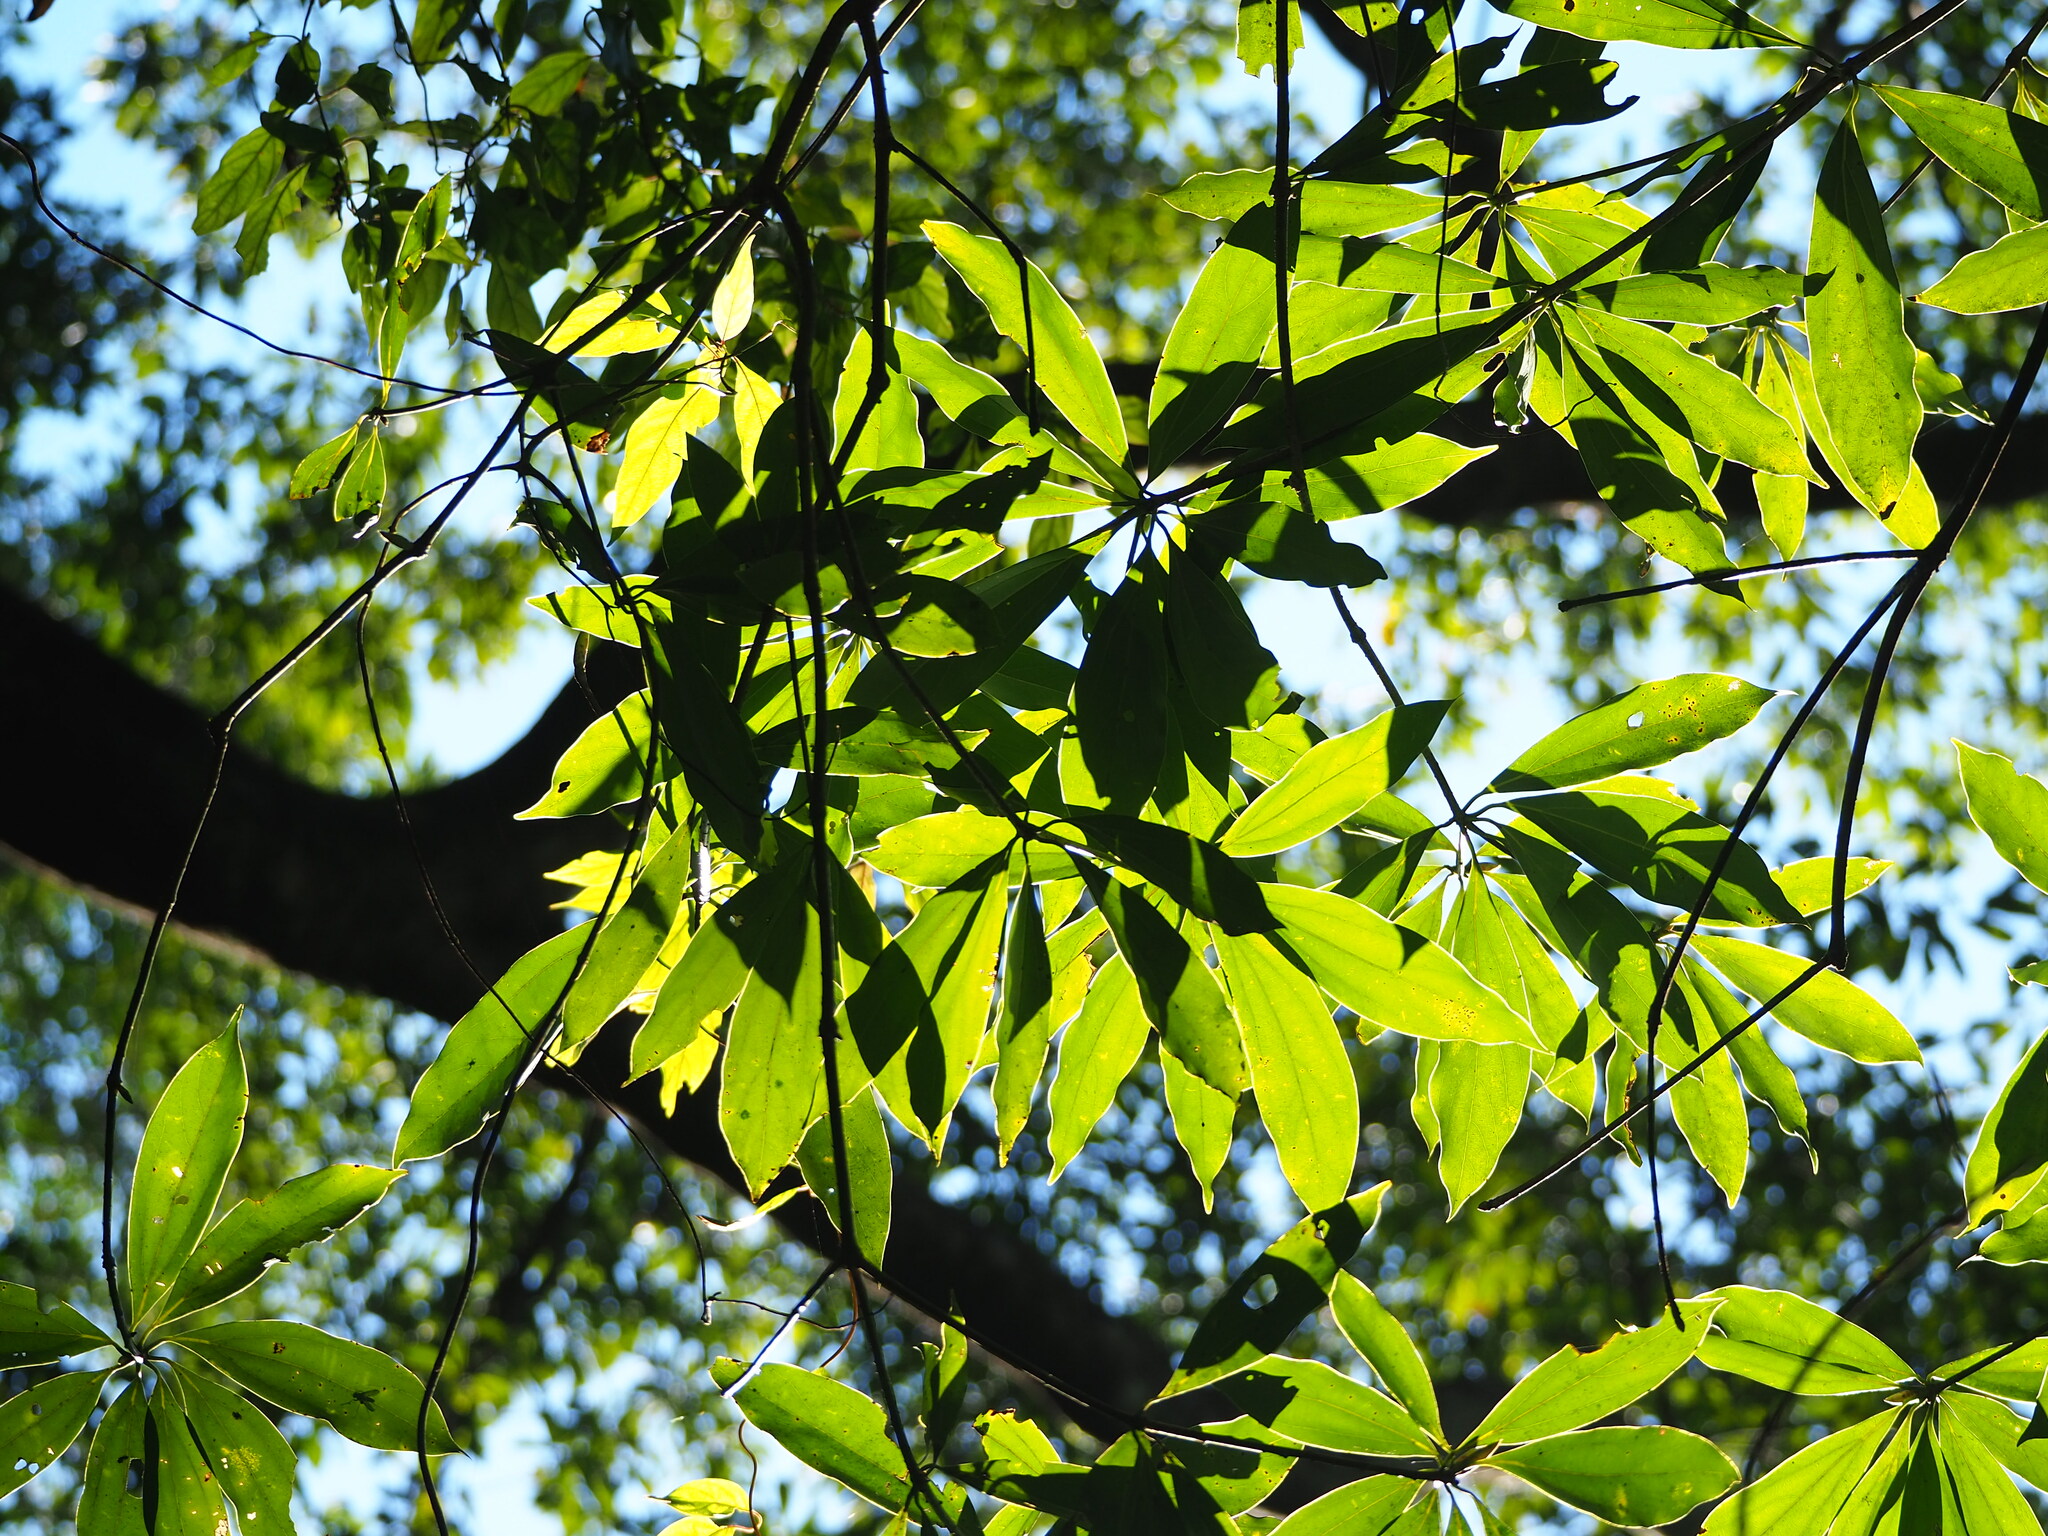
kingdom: Plantae
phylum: Tracheophyta
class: Magnoliopsida
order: Laurales
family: Lauraceae
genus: Neolitsea
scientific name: Neolitsea konishii
